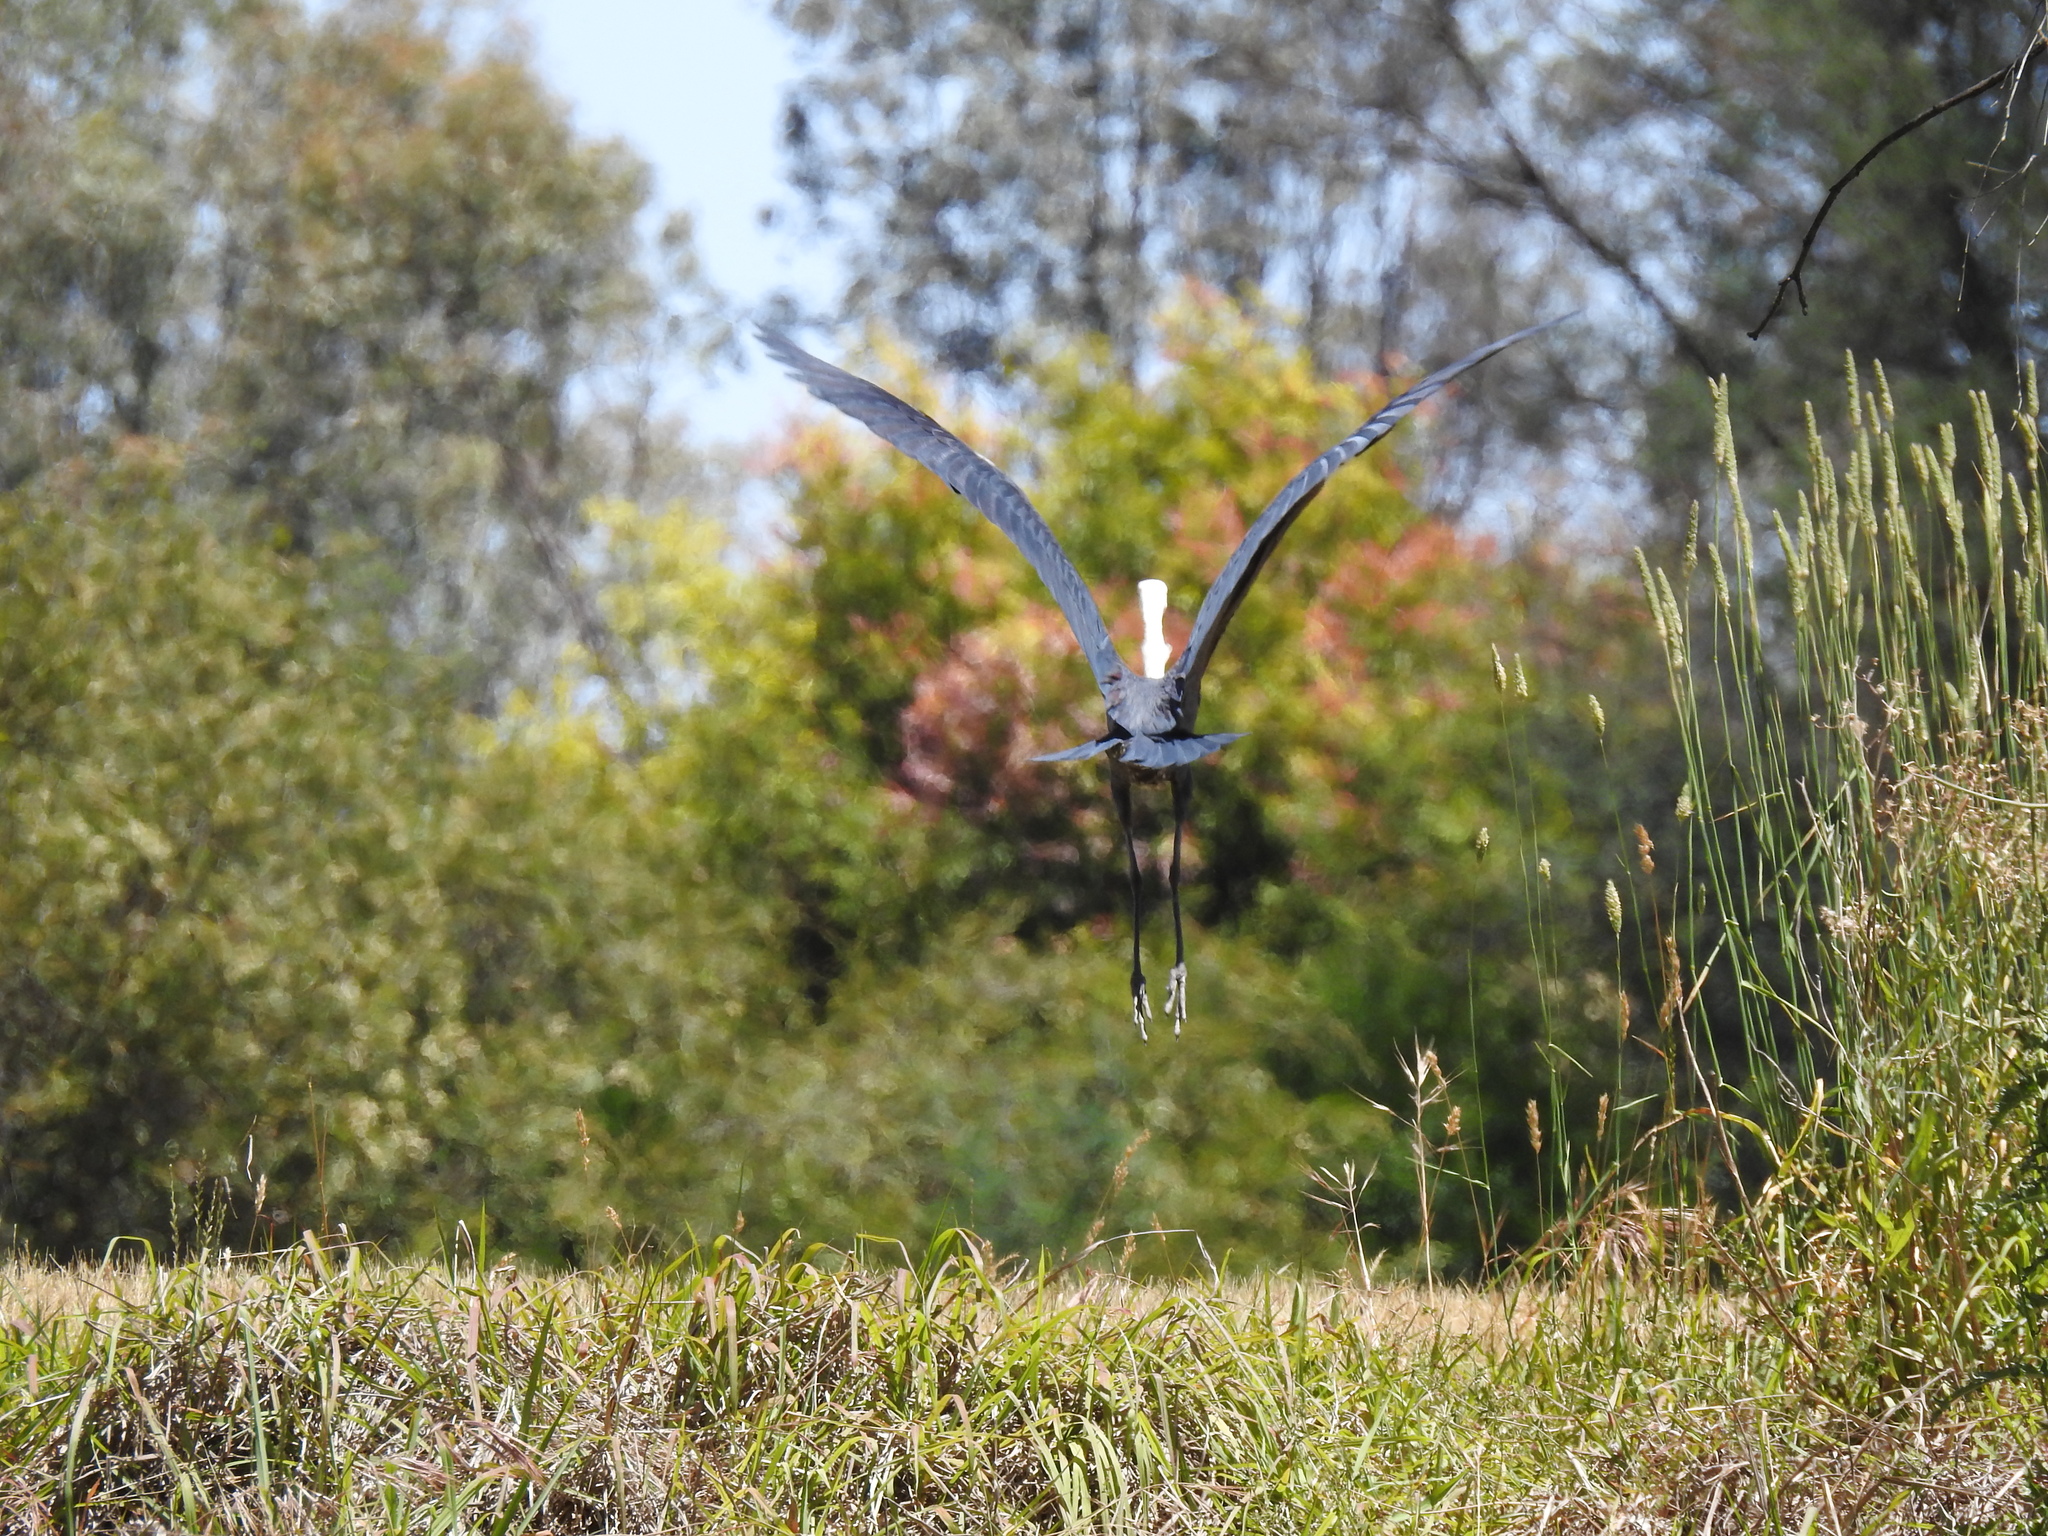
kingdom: Animalia
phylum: Chordata
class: Aves
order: Pelecaniformes
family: Ardeidae
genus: Ardea
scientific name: Ardea pacifica
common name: White-necked heron
